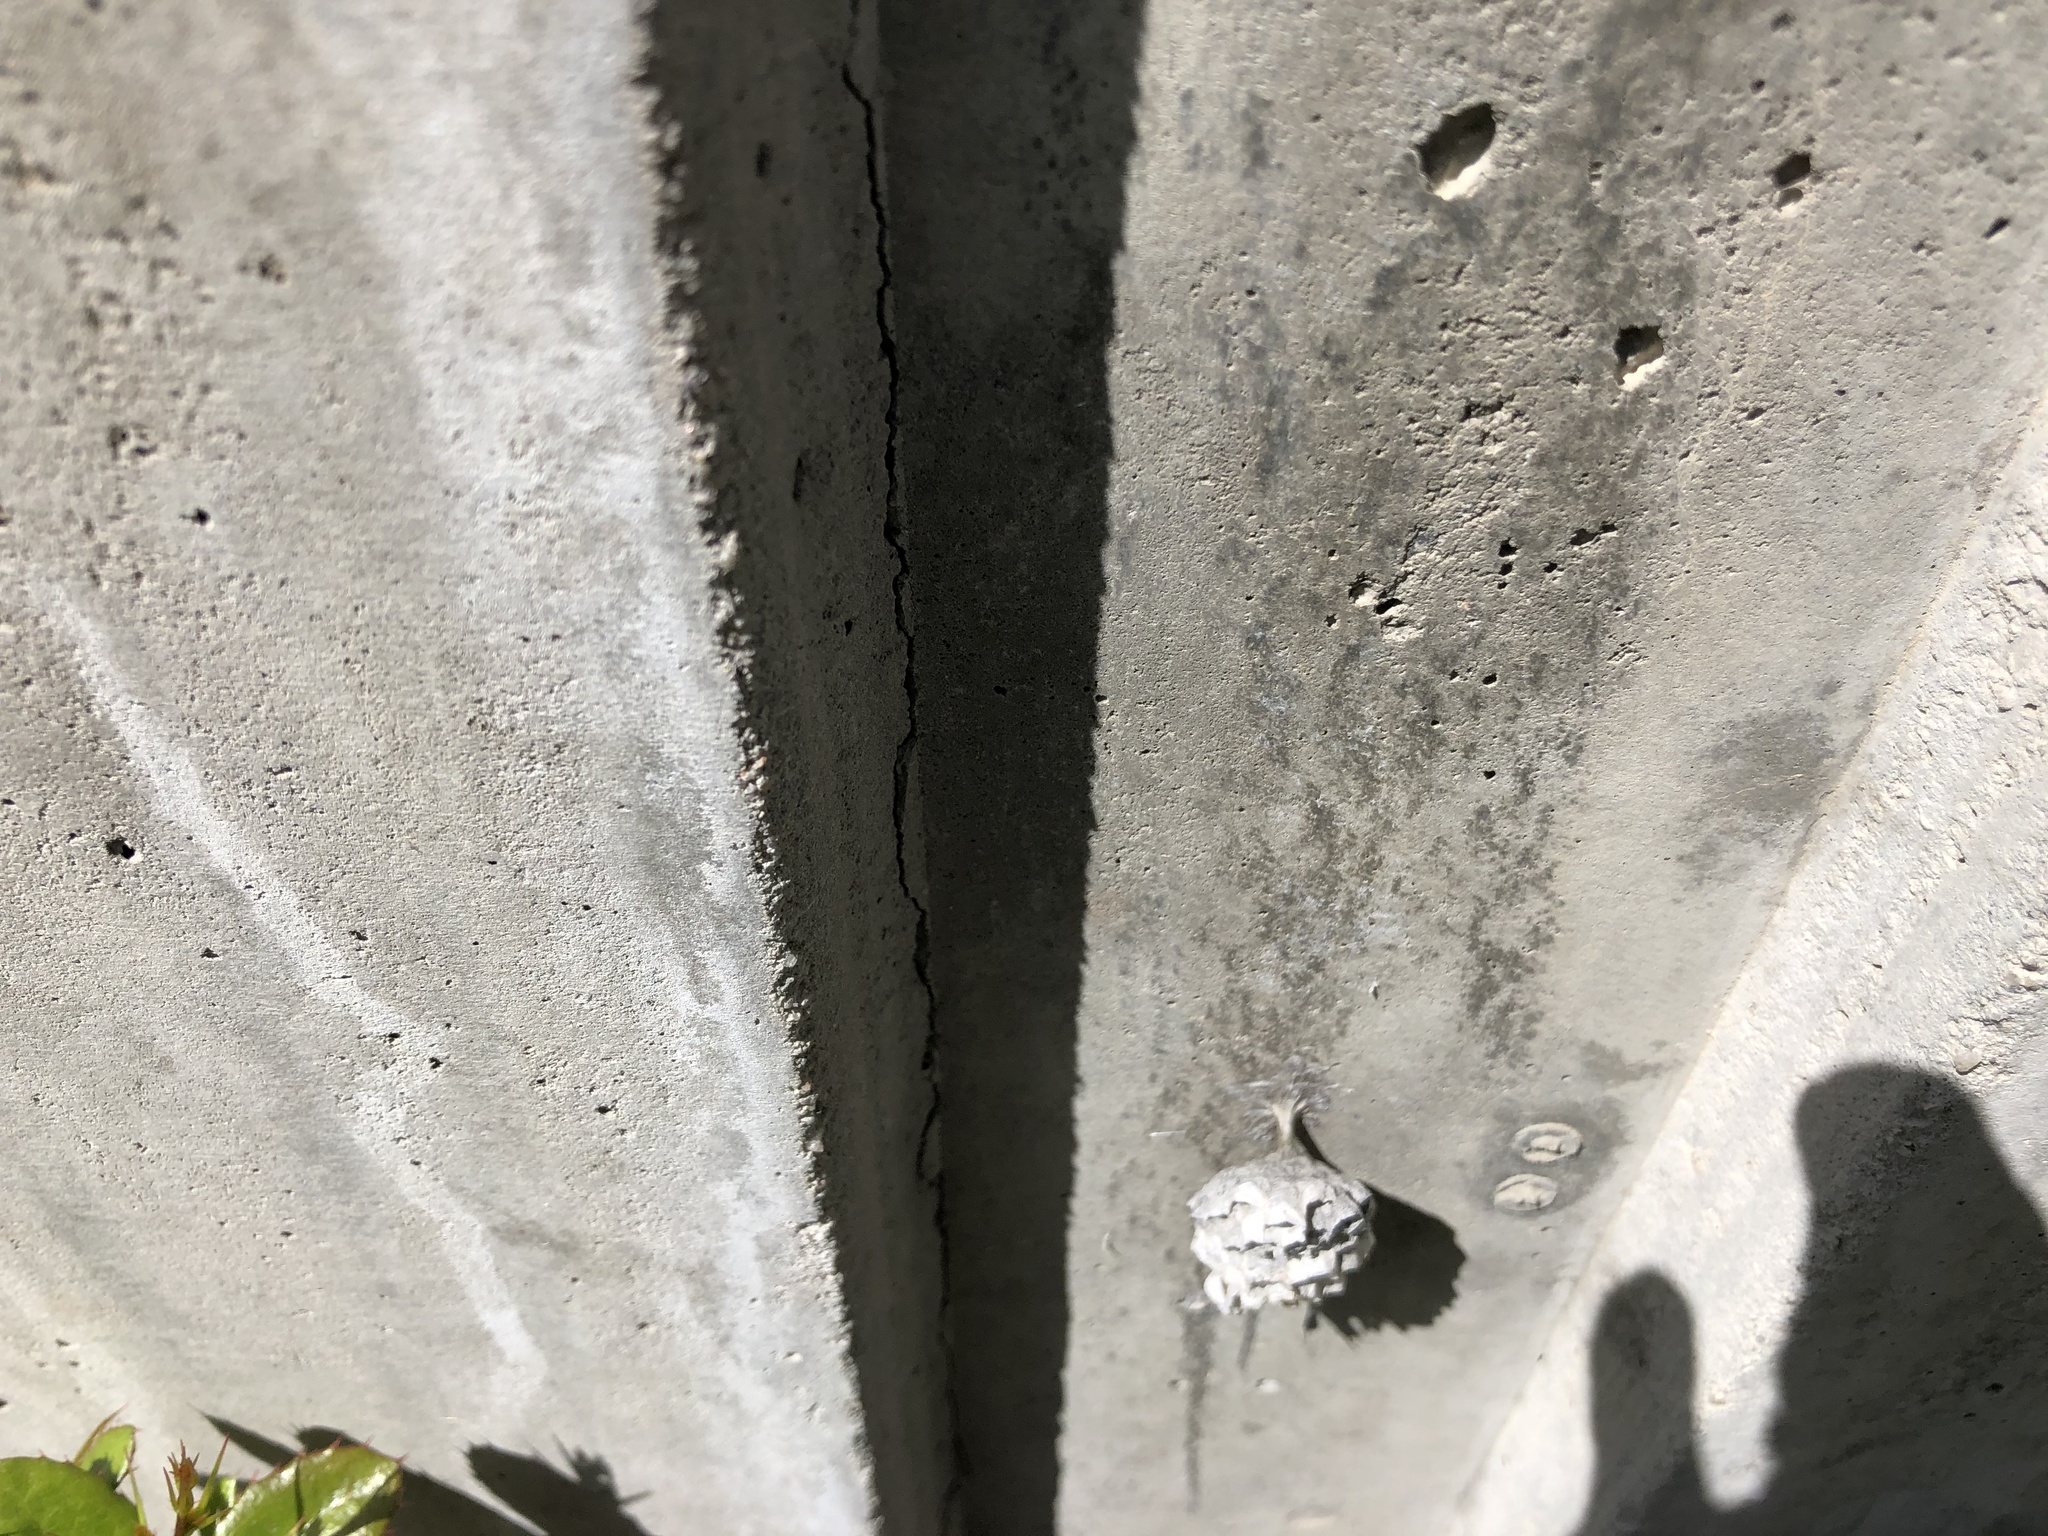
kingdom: Animalia
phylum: Arthropoda
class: Insecta
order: Hymenoptera
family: Vespidae
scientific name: Vespidae
